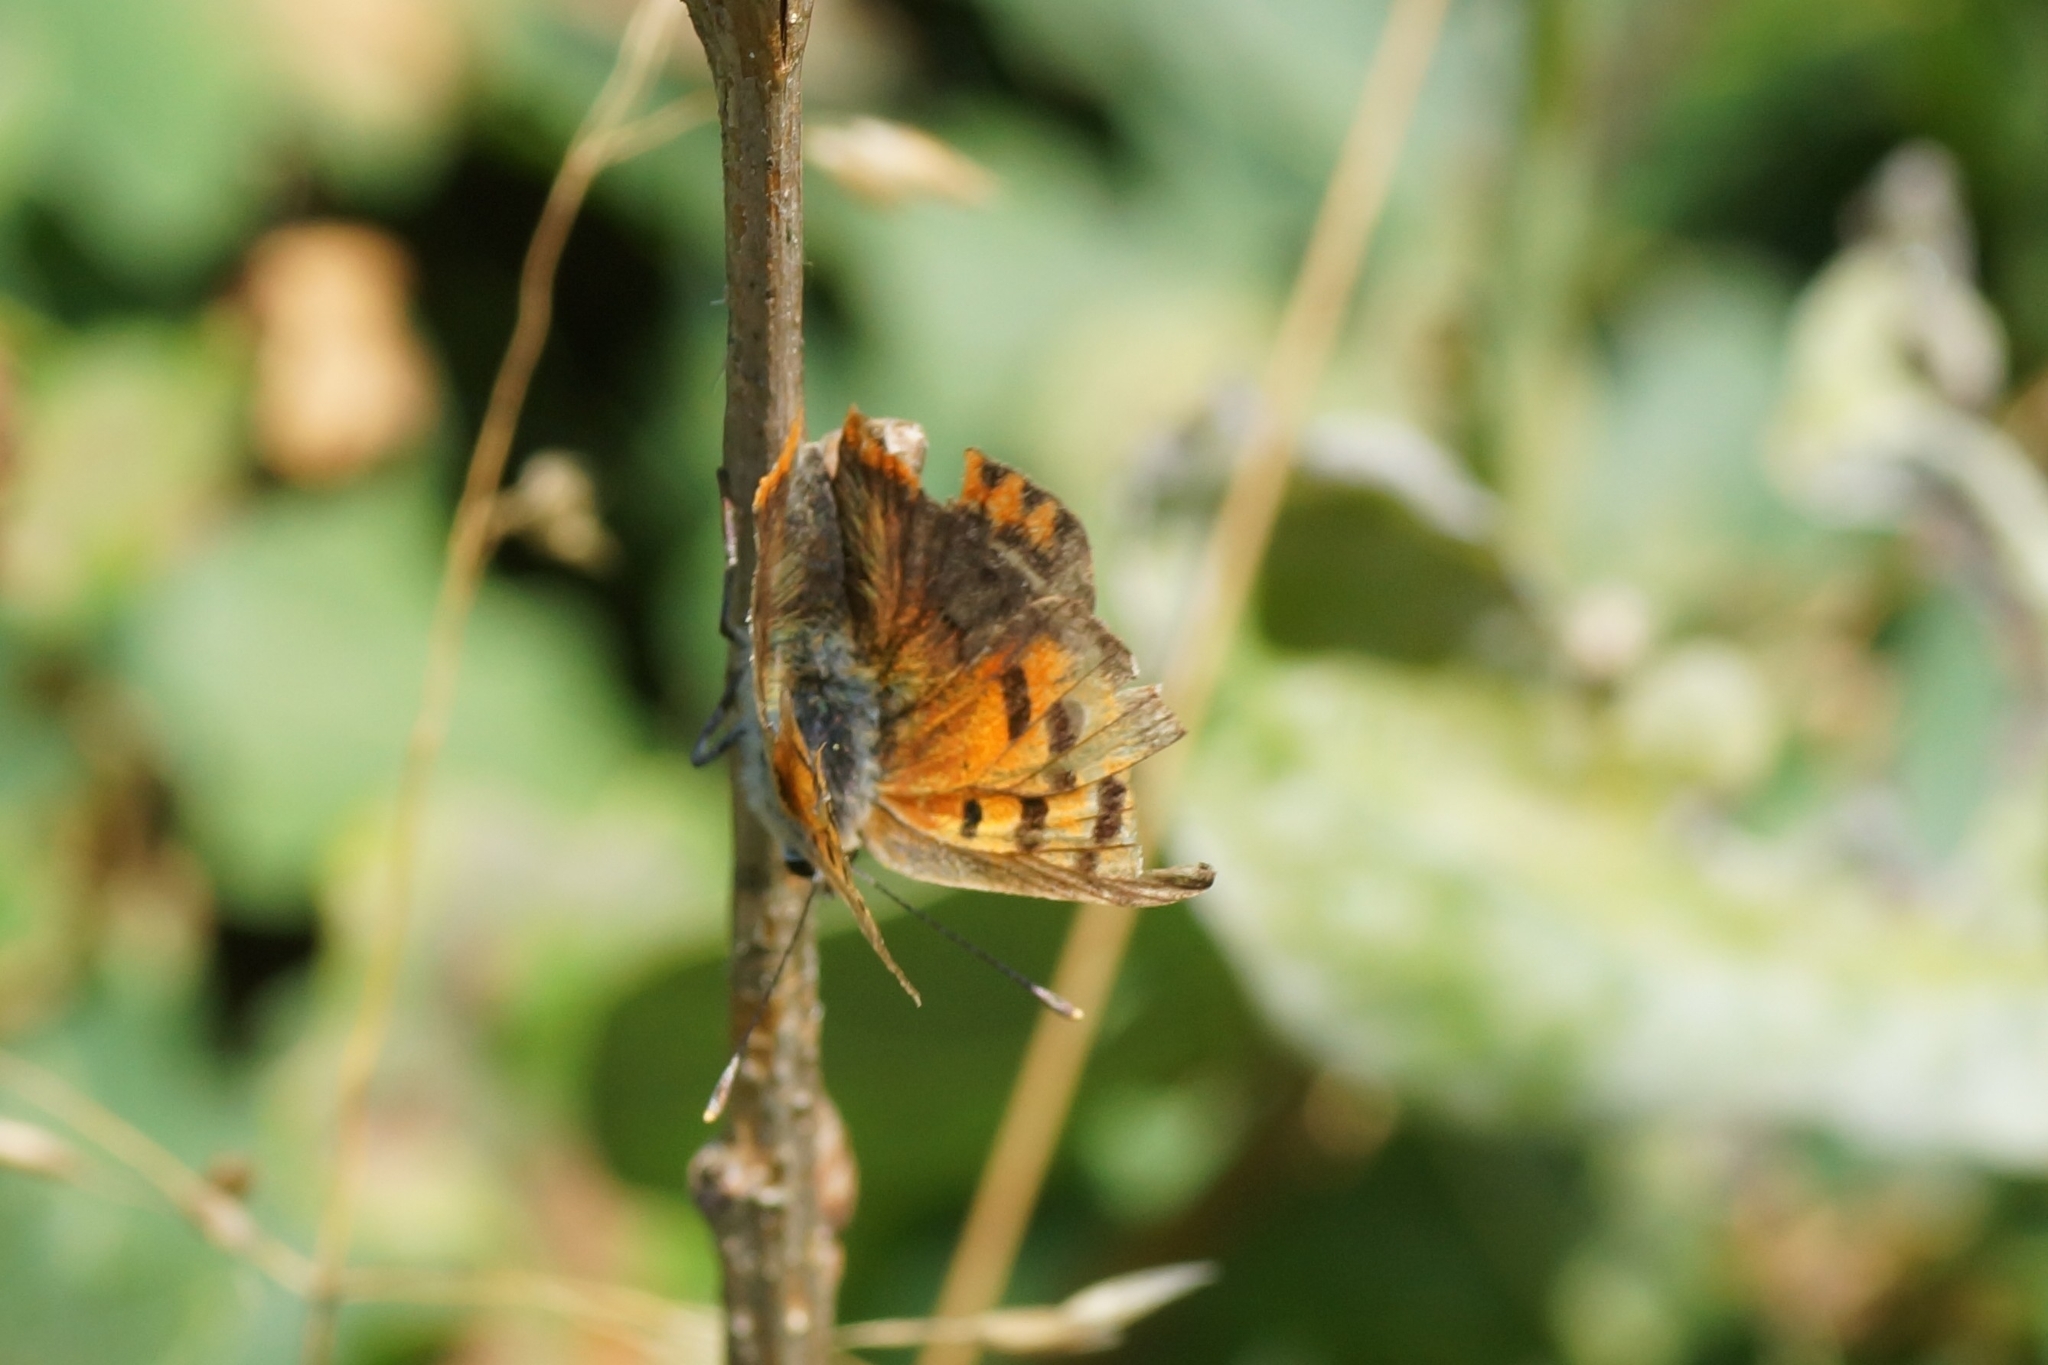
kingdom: Animalia
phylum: Arthropoda
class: Insecta
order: Lepidoptera
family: Lycaenidae
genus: Lycaena
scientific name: Lycaena phlaeas
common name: Small copper
